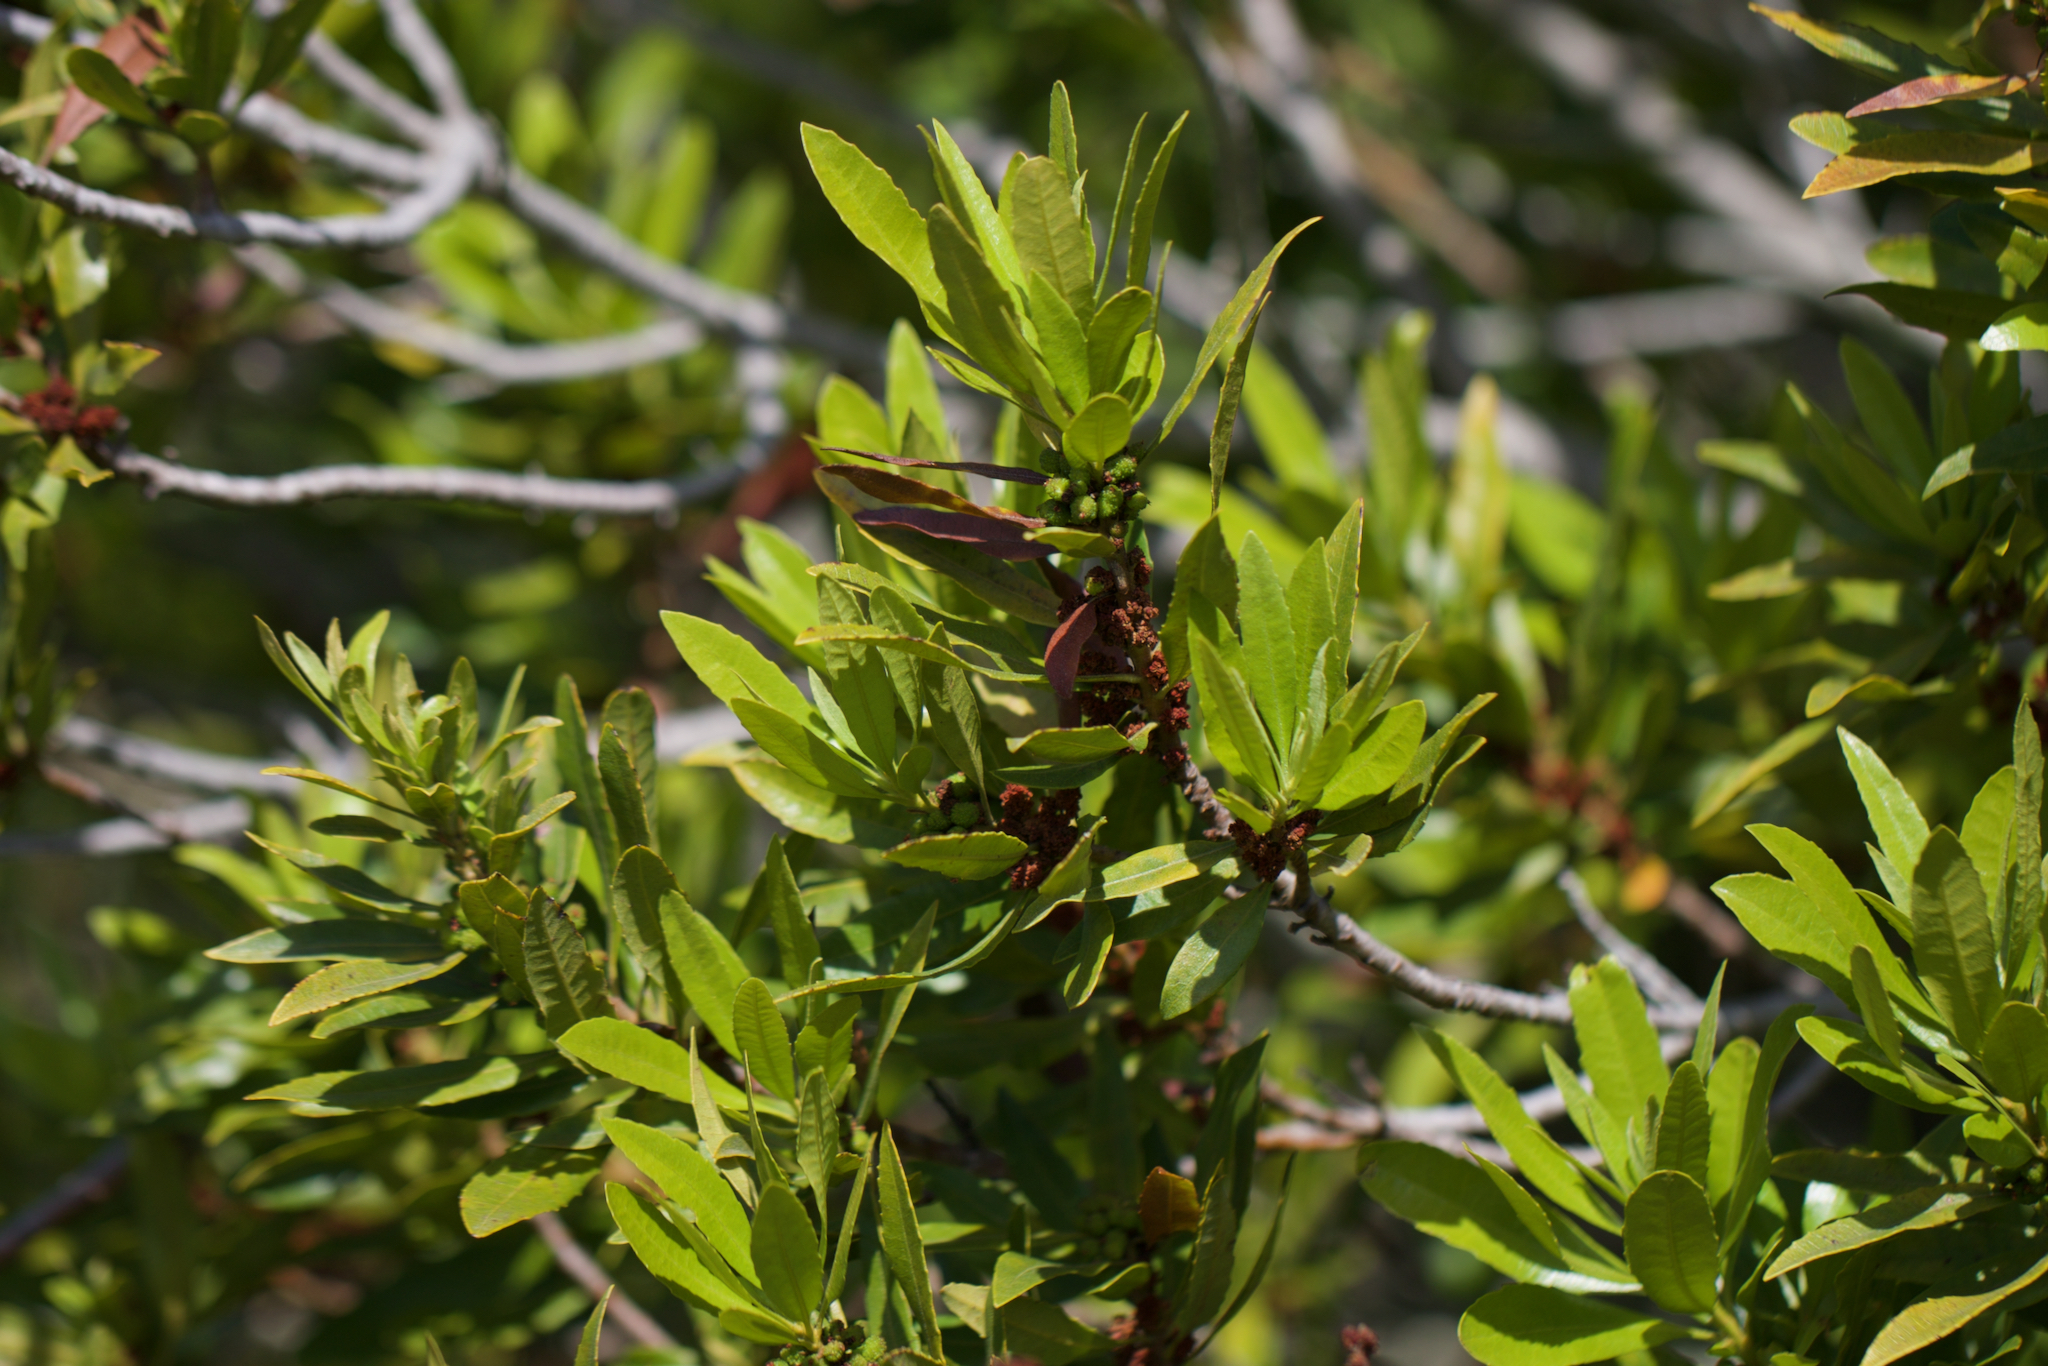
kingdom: Plantae
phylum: Tracheophyta
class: Magnoliopsida
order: Fagales
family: Myricaceae
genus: Morella
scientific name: Morella californica
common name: California wax-myrtle
